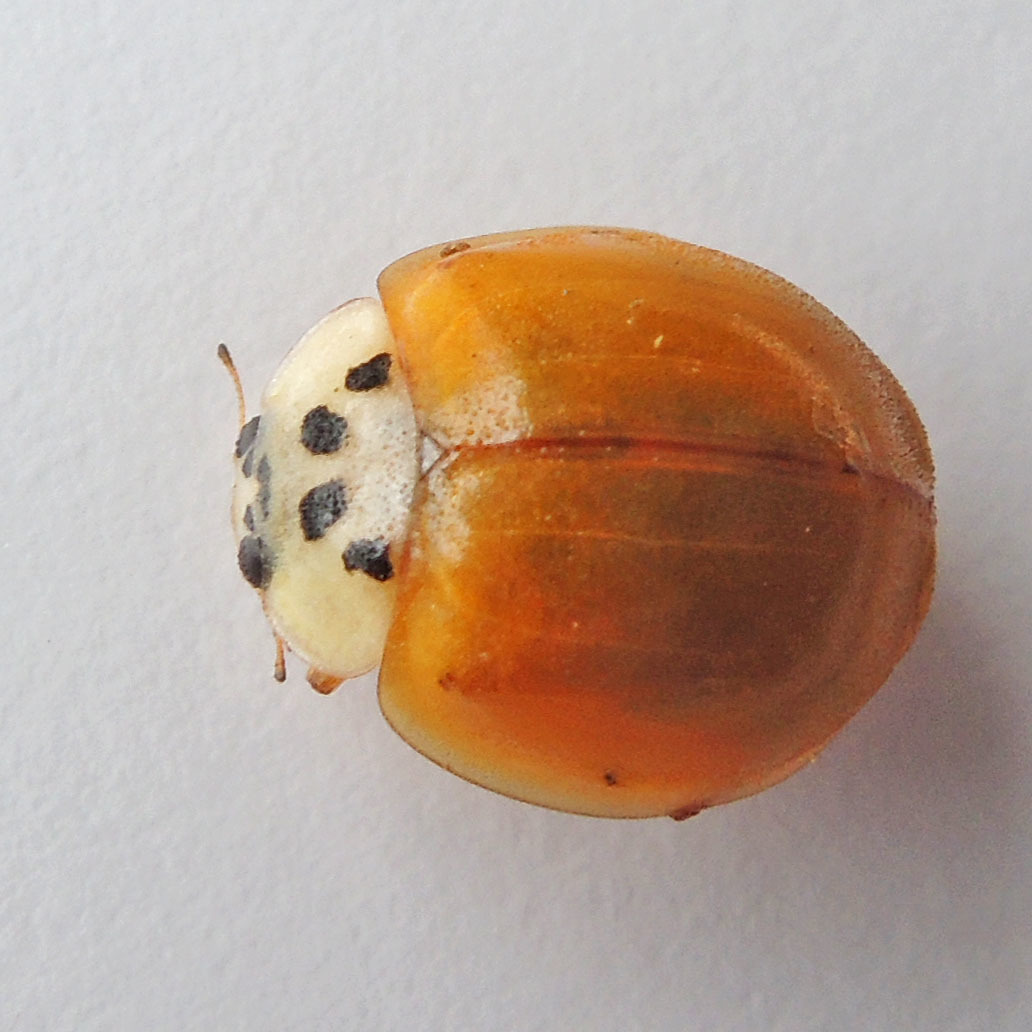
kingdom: Animalia
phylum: Arthropoda
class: Insecta
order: Coleoptera
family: Coccinellidae
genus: Harmonia
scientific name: Harmonia axyridis
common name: Harlequin ladybird
